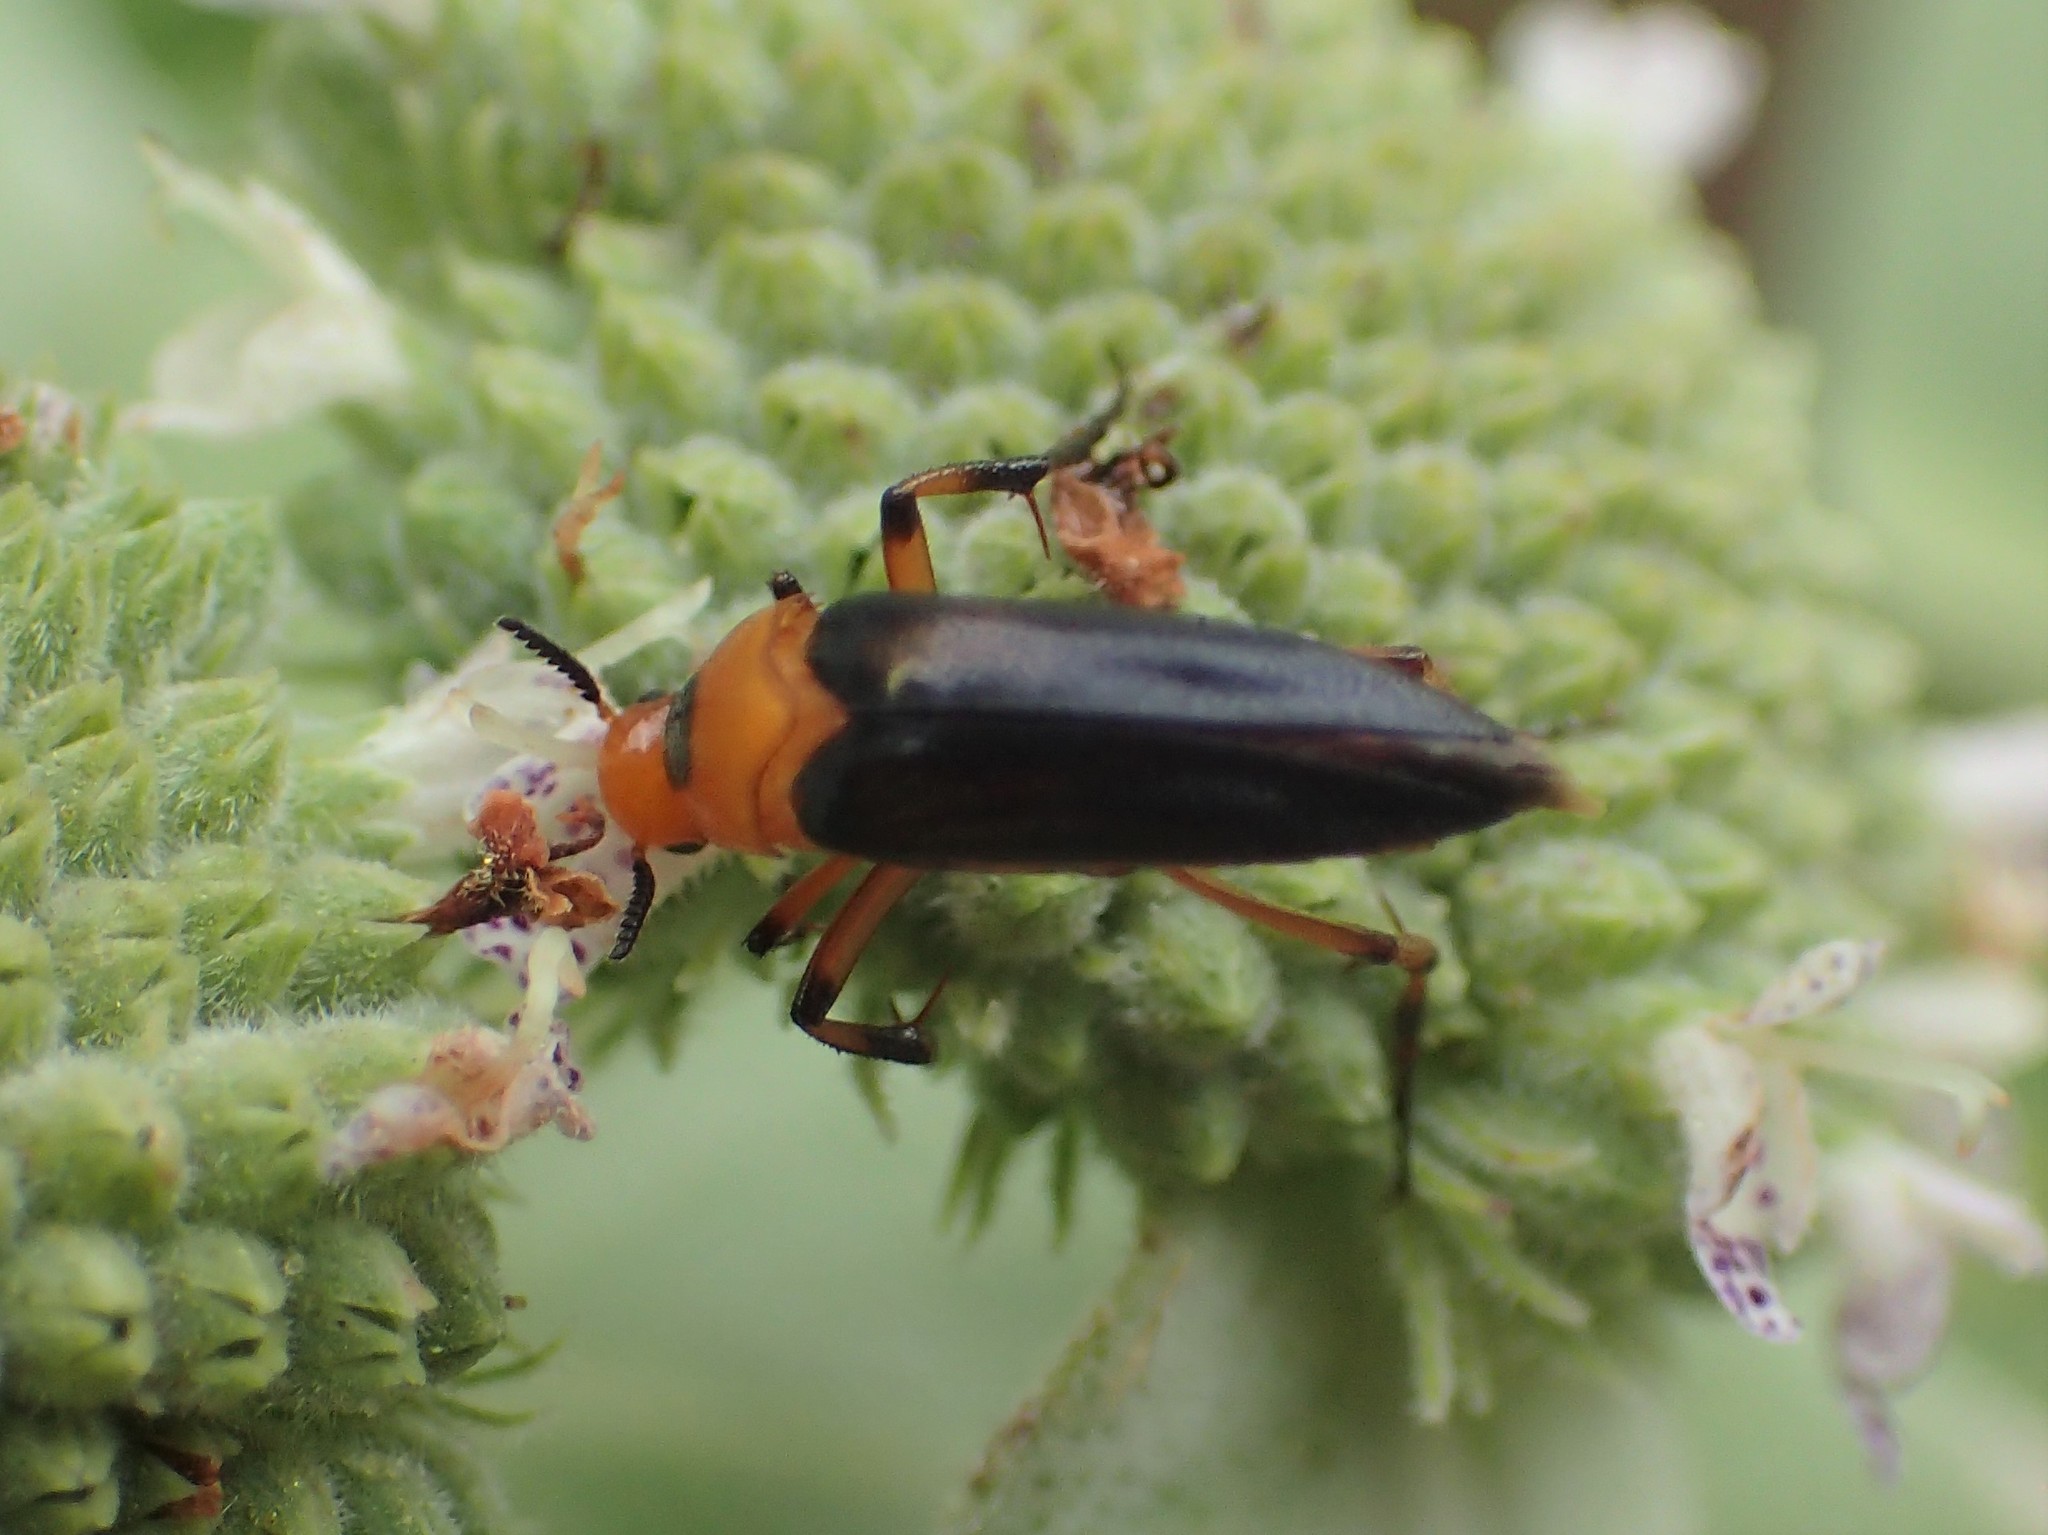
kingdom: Animalia
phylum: Arthropoda
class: Insecta
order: Coleoptera
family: Ripiphoridae
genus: Macrosiagon
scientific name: Macrosiagon limbatum
